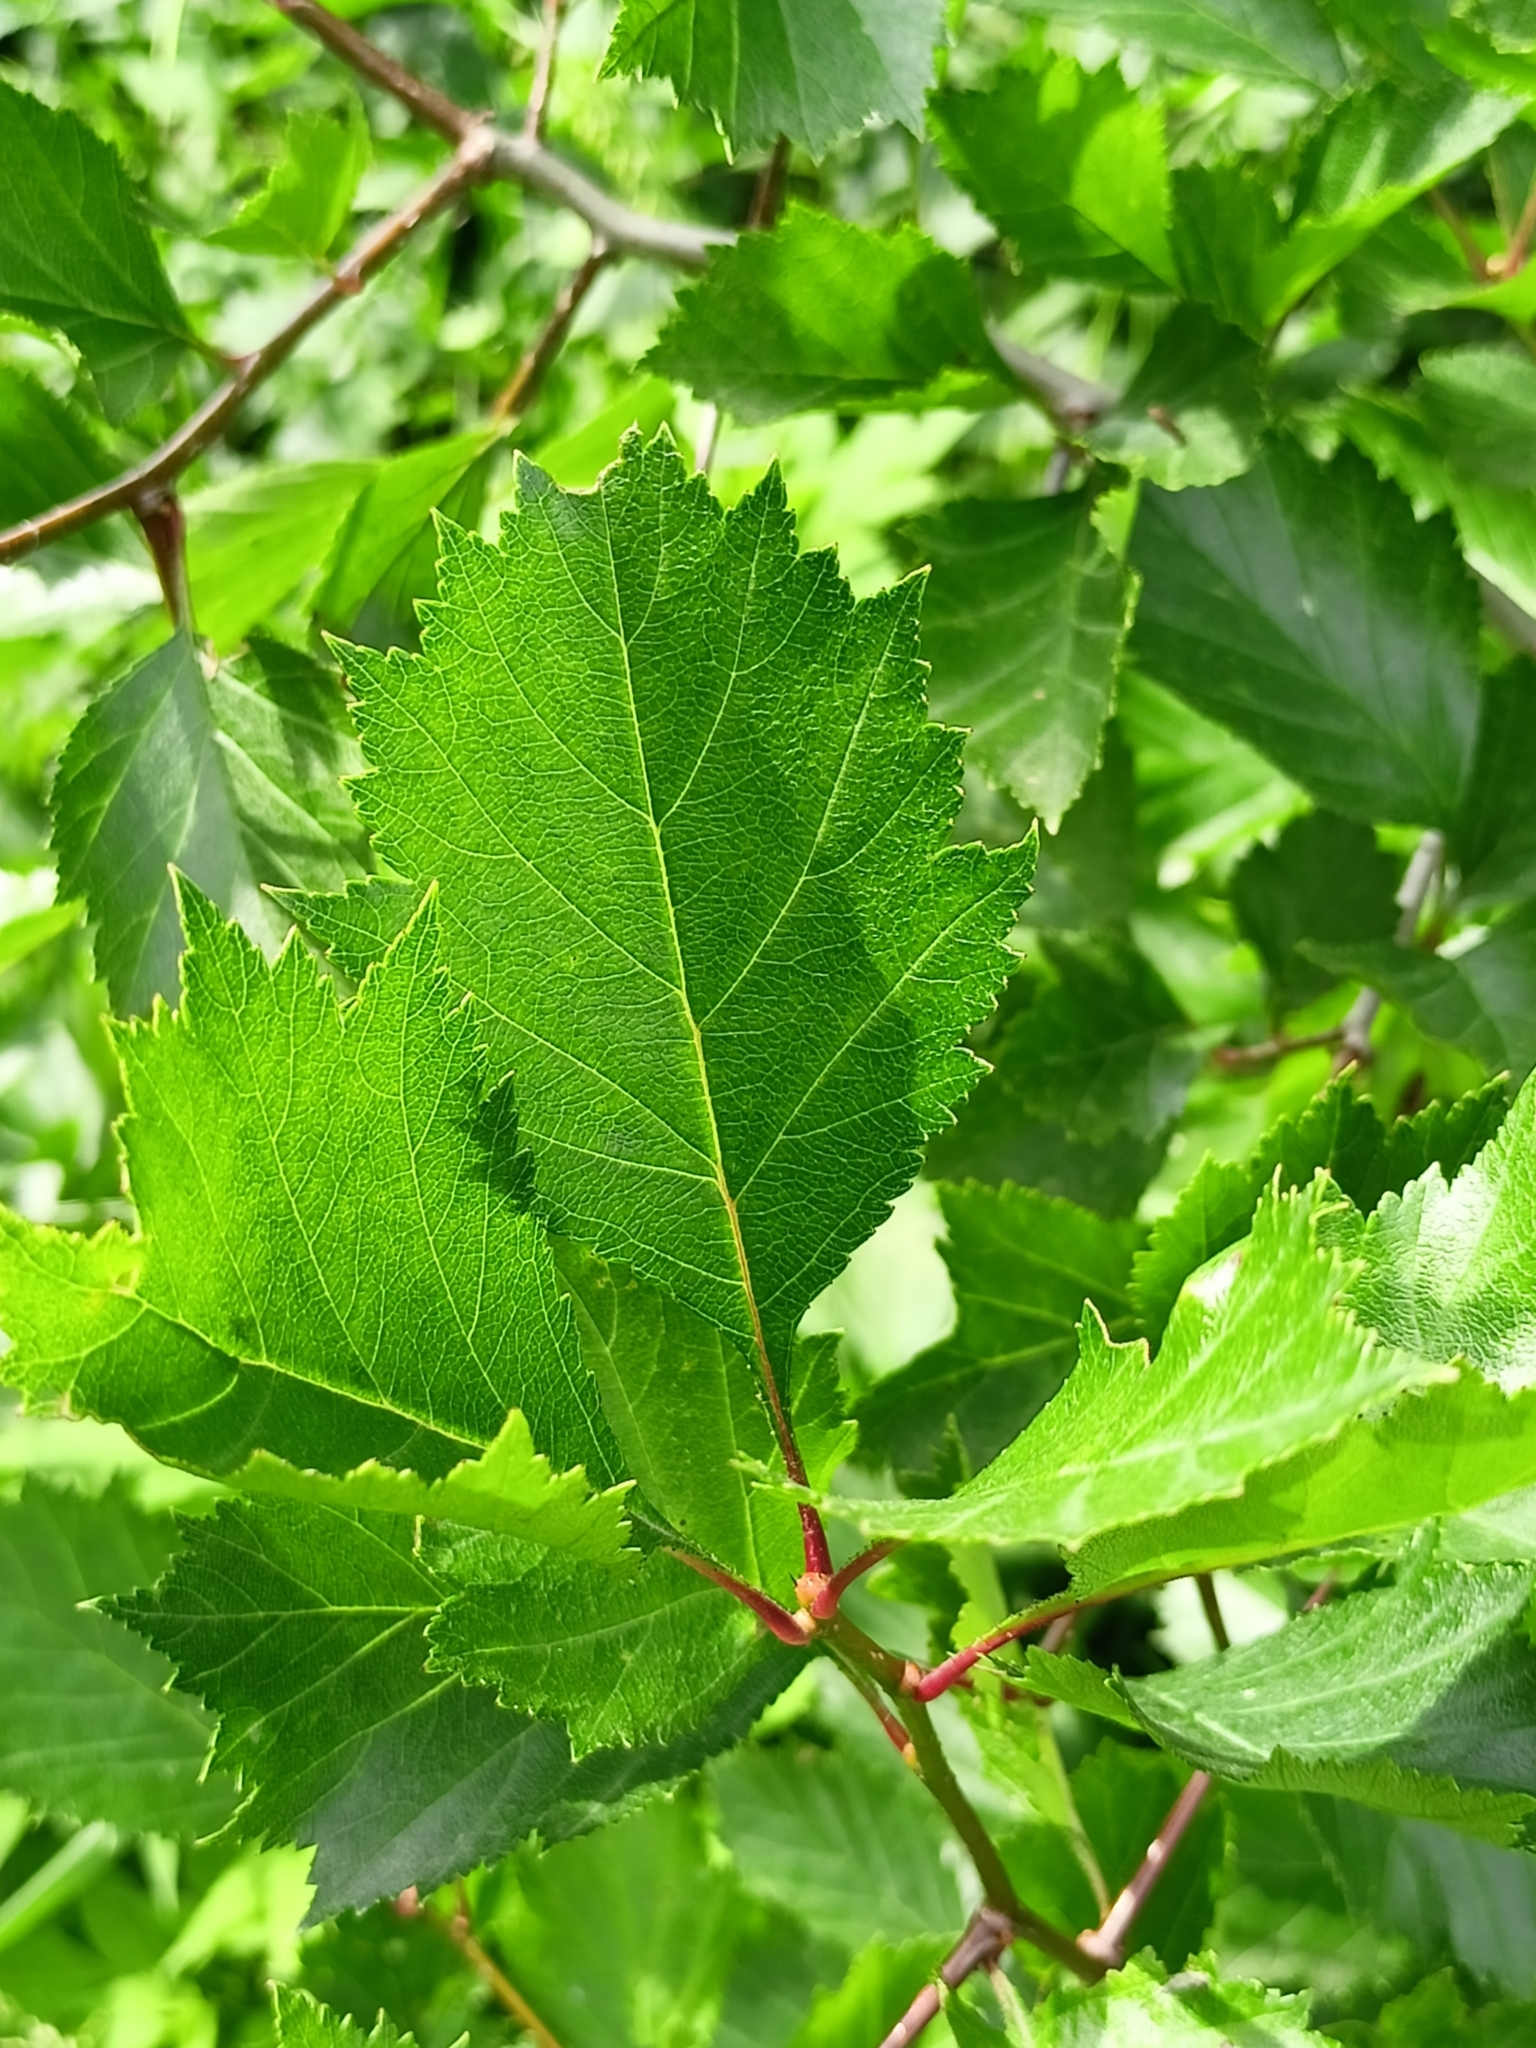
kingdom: Plantae
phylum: Tracheophyta
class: Magnoliopsida
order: Rosales
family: Rosaceae
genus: Crataegus
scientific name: Crataegus flabellata
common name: Bosc's hawthorn
